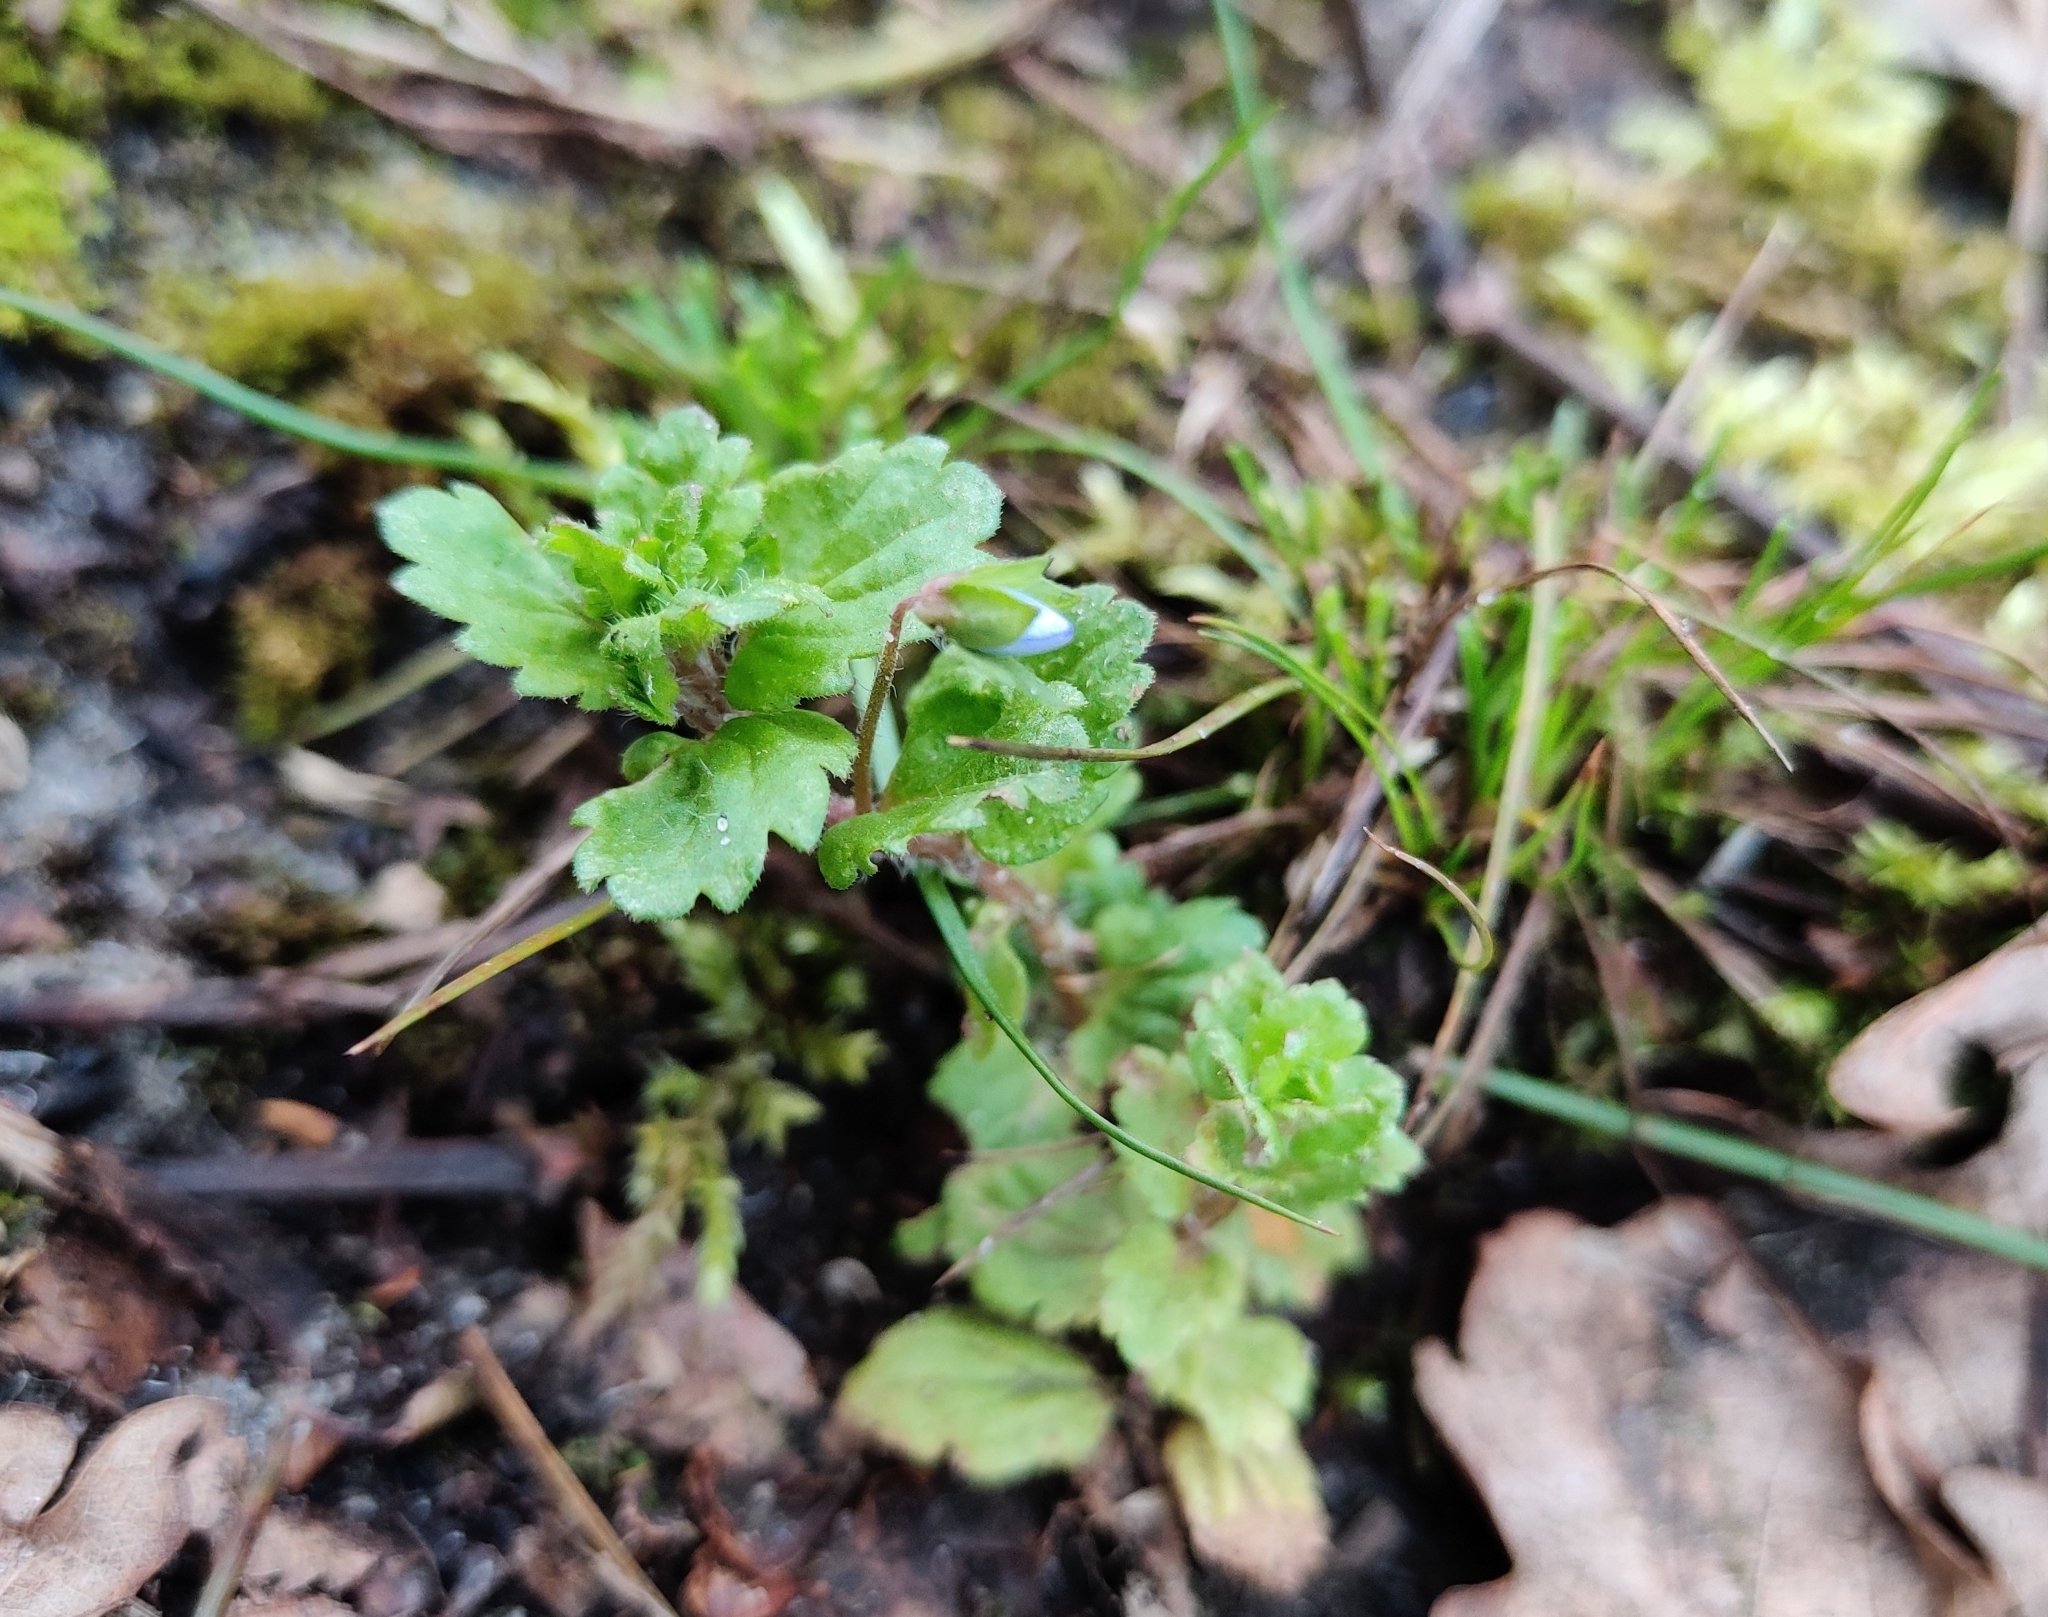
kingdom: Plantae
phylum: Tracheophyta
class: Magnoliopsida
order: Lamiales
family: Plantaginaceae
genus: Veronica
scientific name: Veronica persica
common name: Common field-speedwell
